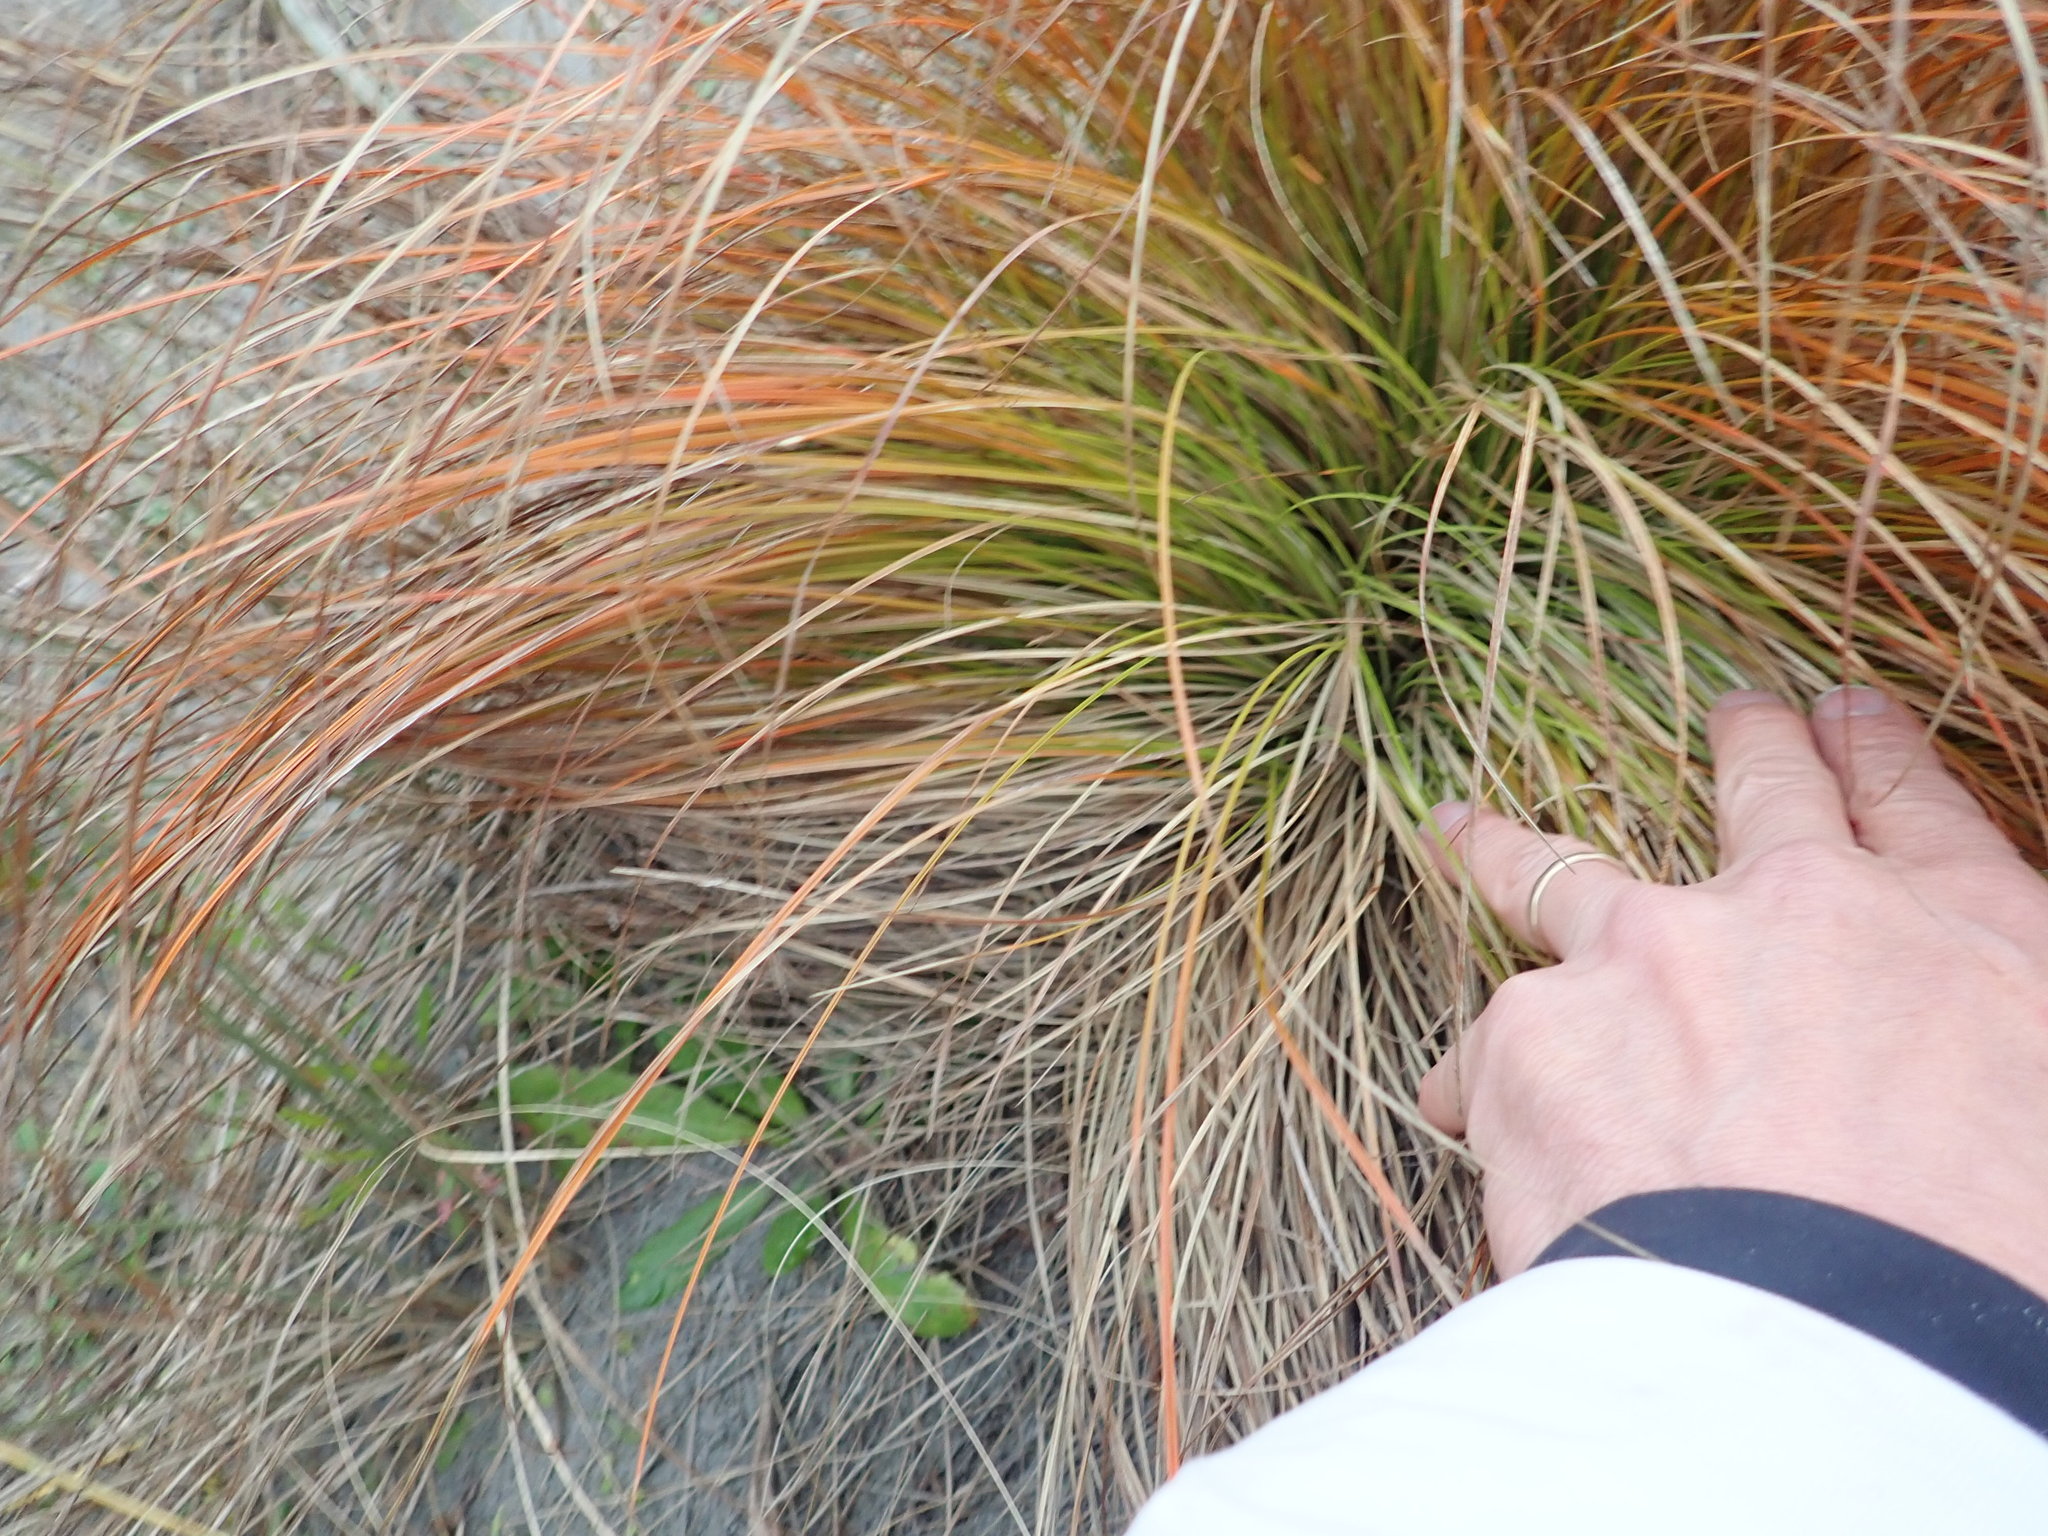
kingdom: Plantae
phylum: Tracheophyta
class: Liliopsida
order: Poales
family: Cyperaceae
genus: Carex
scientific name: Carex testacea
